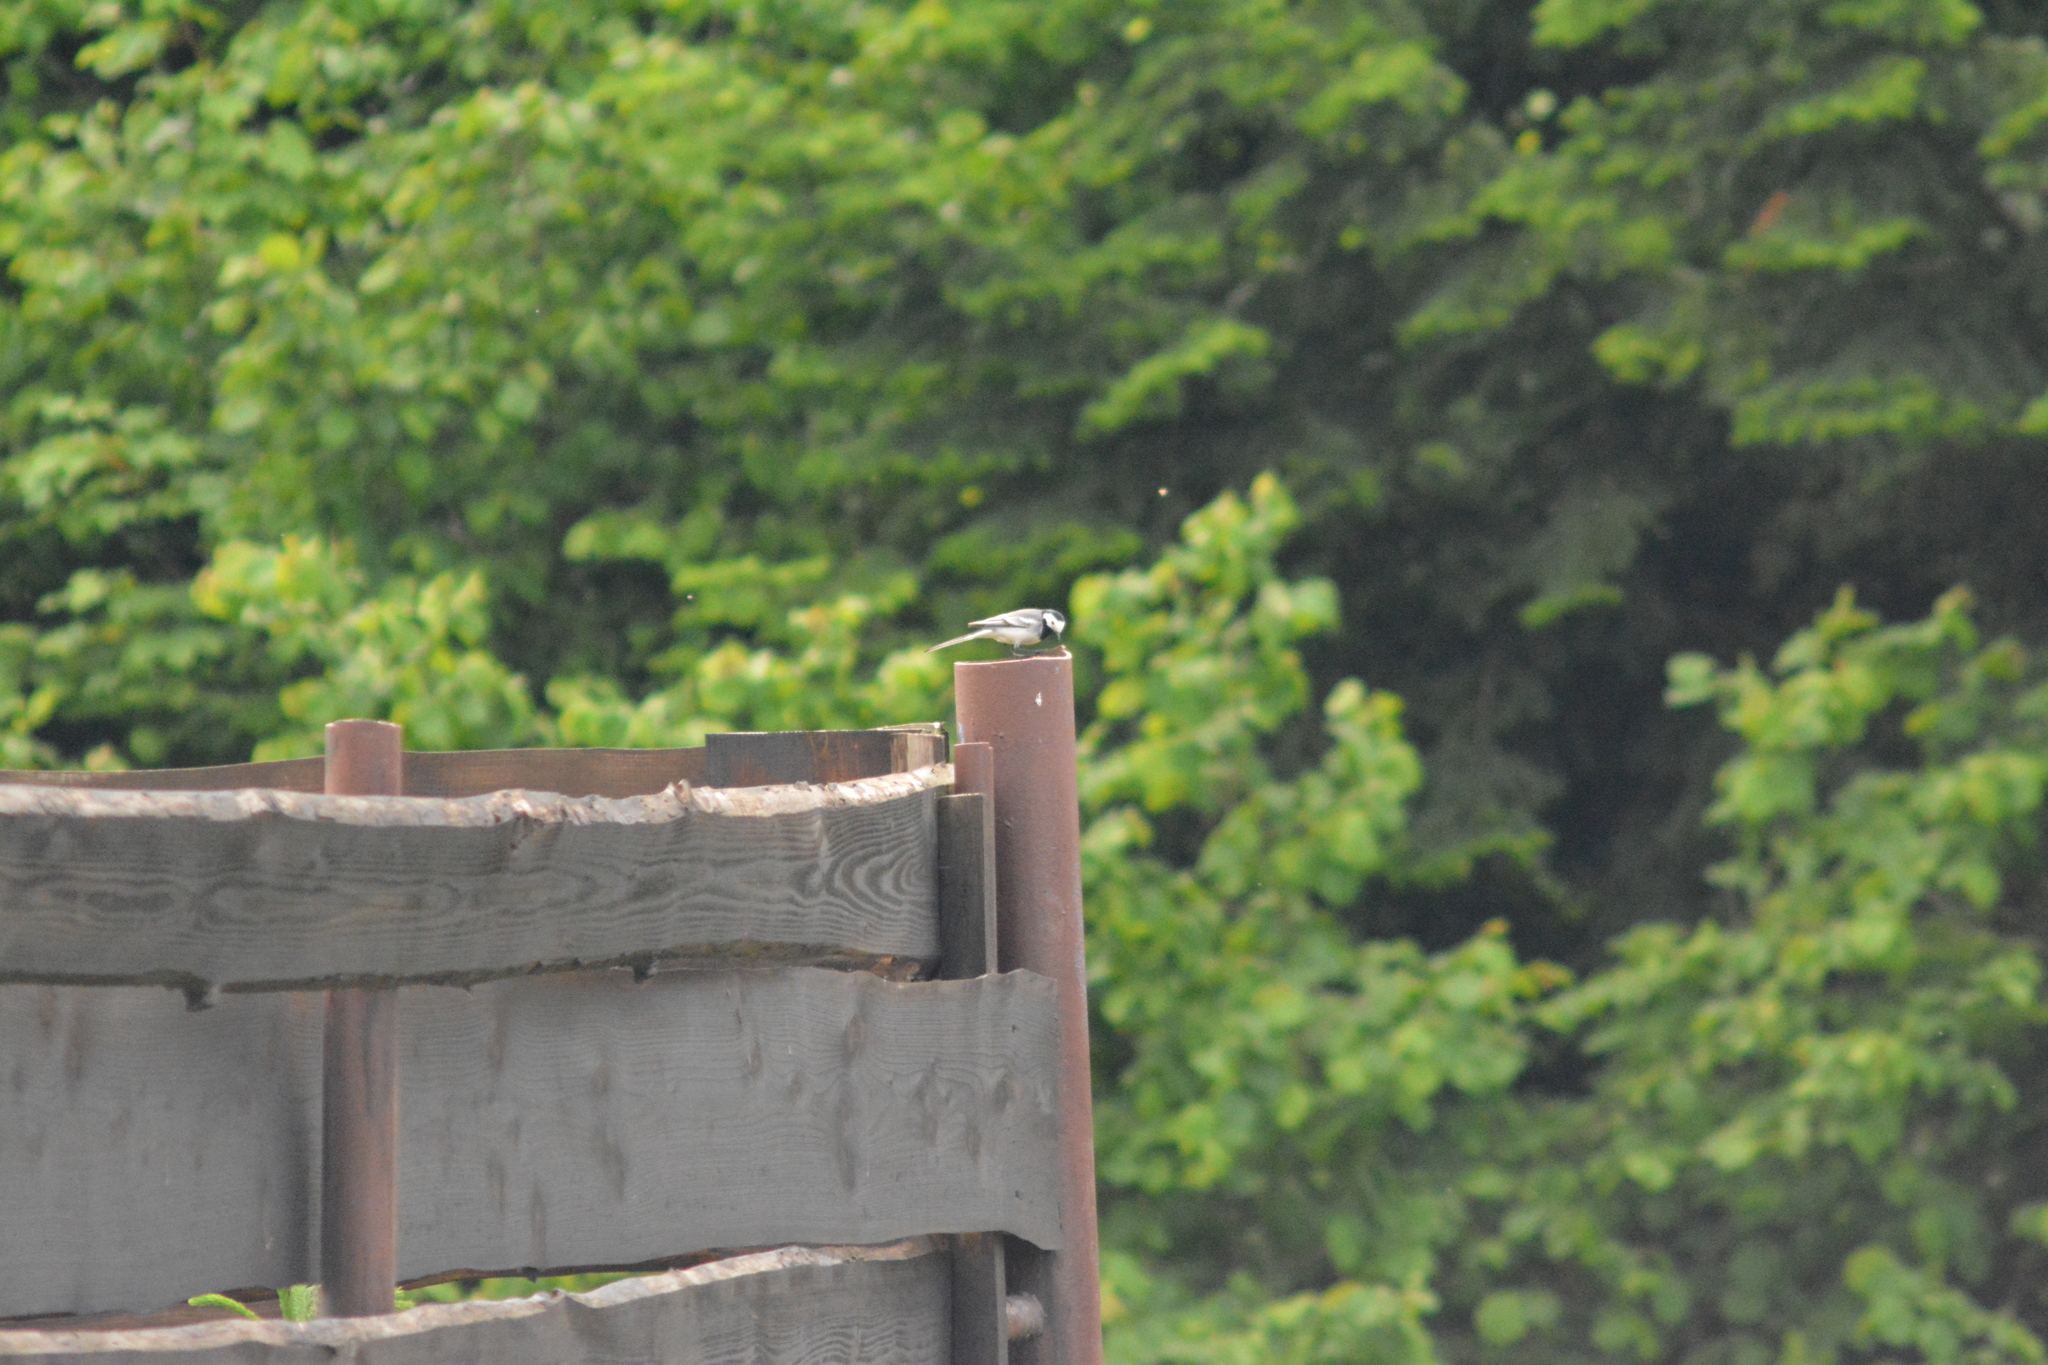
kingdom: Animalia
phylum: Chordata
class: Aves
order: Passeriformes
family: Motacillidae
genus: Motacilla
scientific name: Motacilla alba
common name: White wagtail
